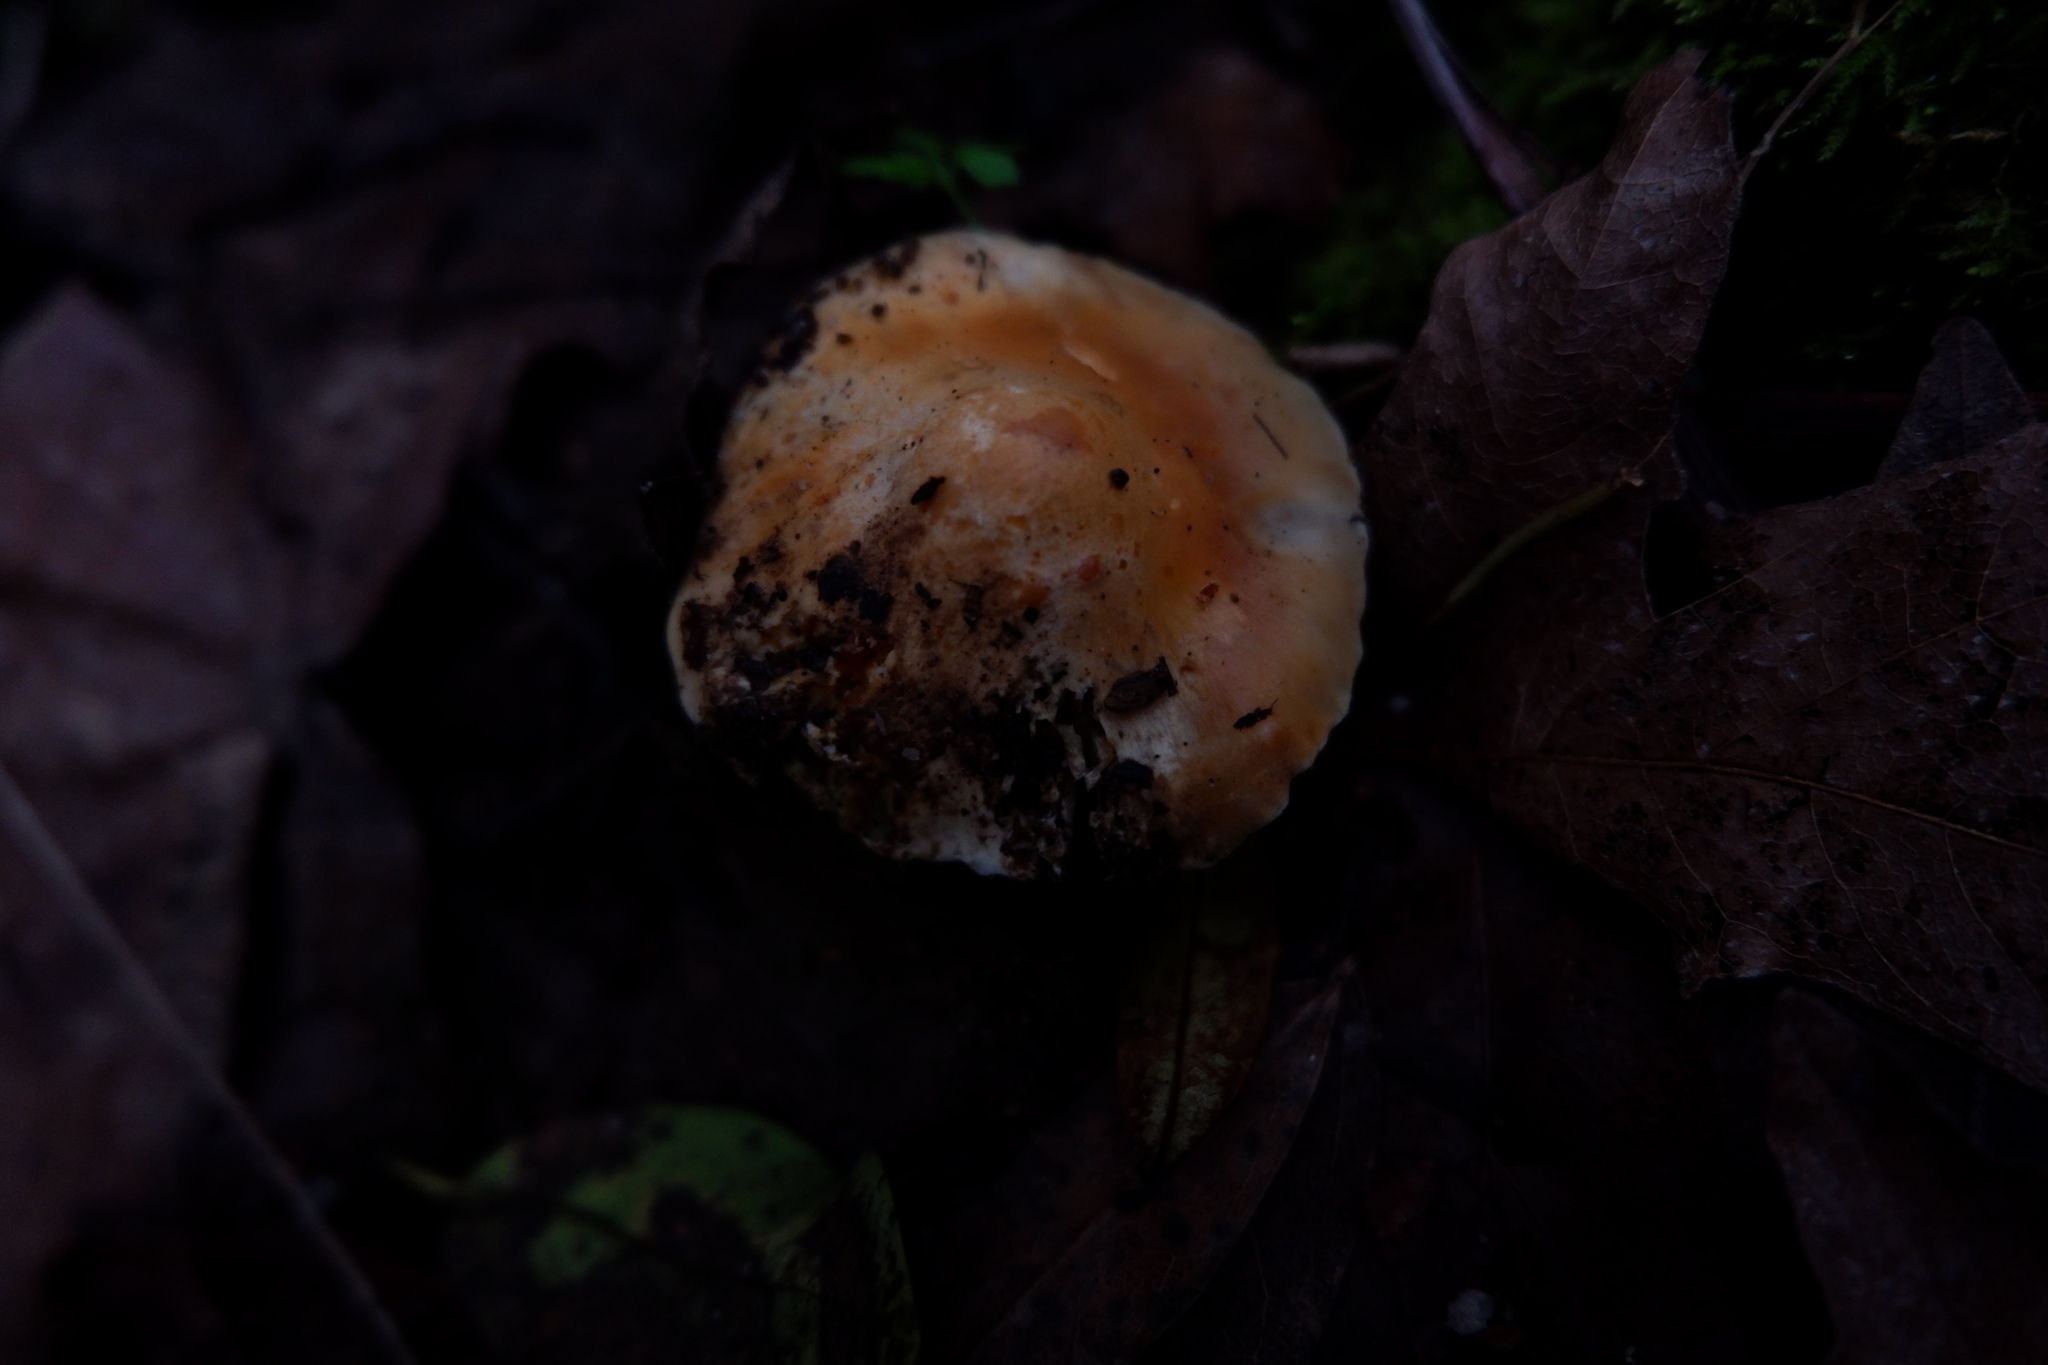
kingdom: Fungi
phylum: Basidiomycota
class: Agaricomycetes
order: Agaricales
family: Hygrophoraceae
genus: Cuphophyllus
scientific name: Cuphophyllus pratensis
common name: Meadow waxcap
